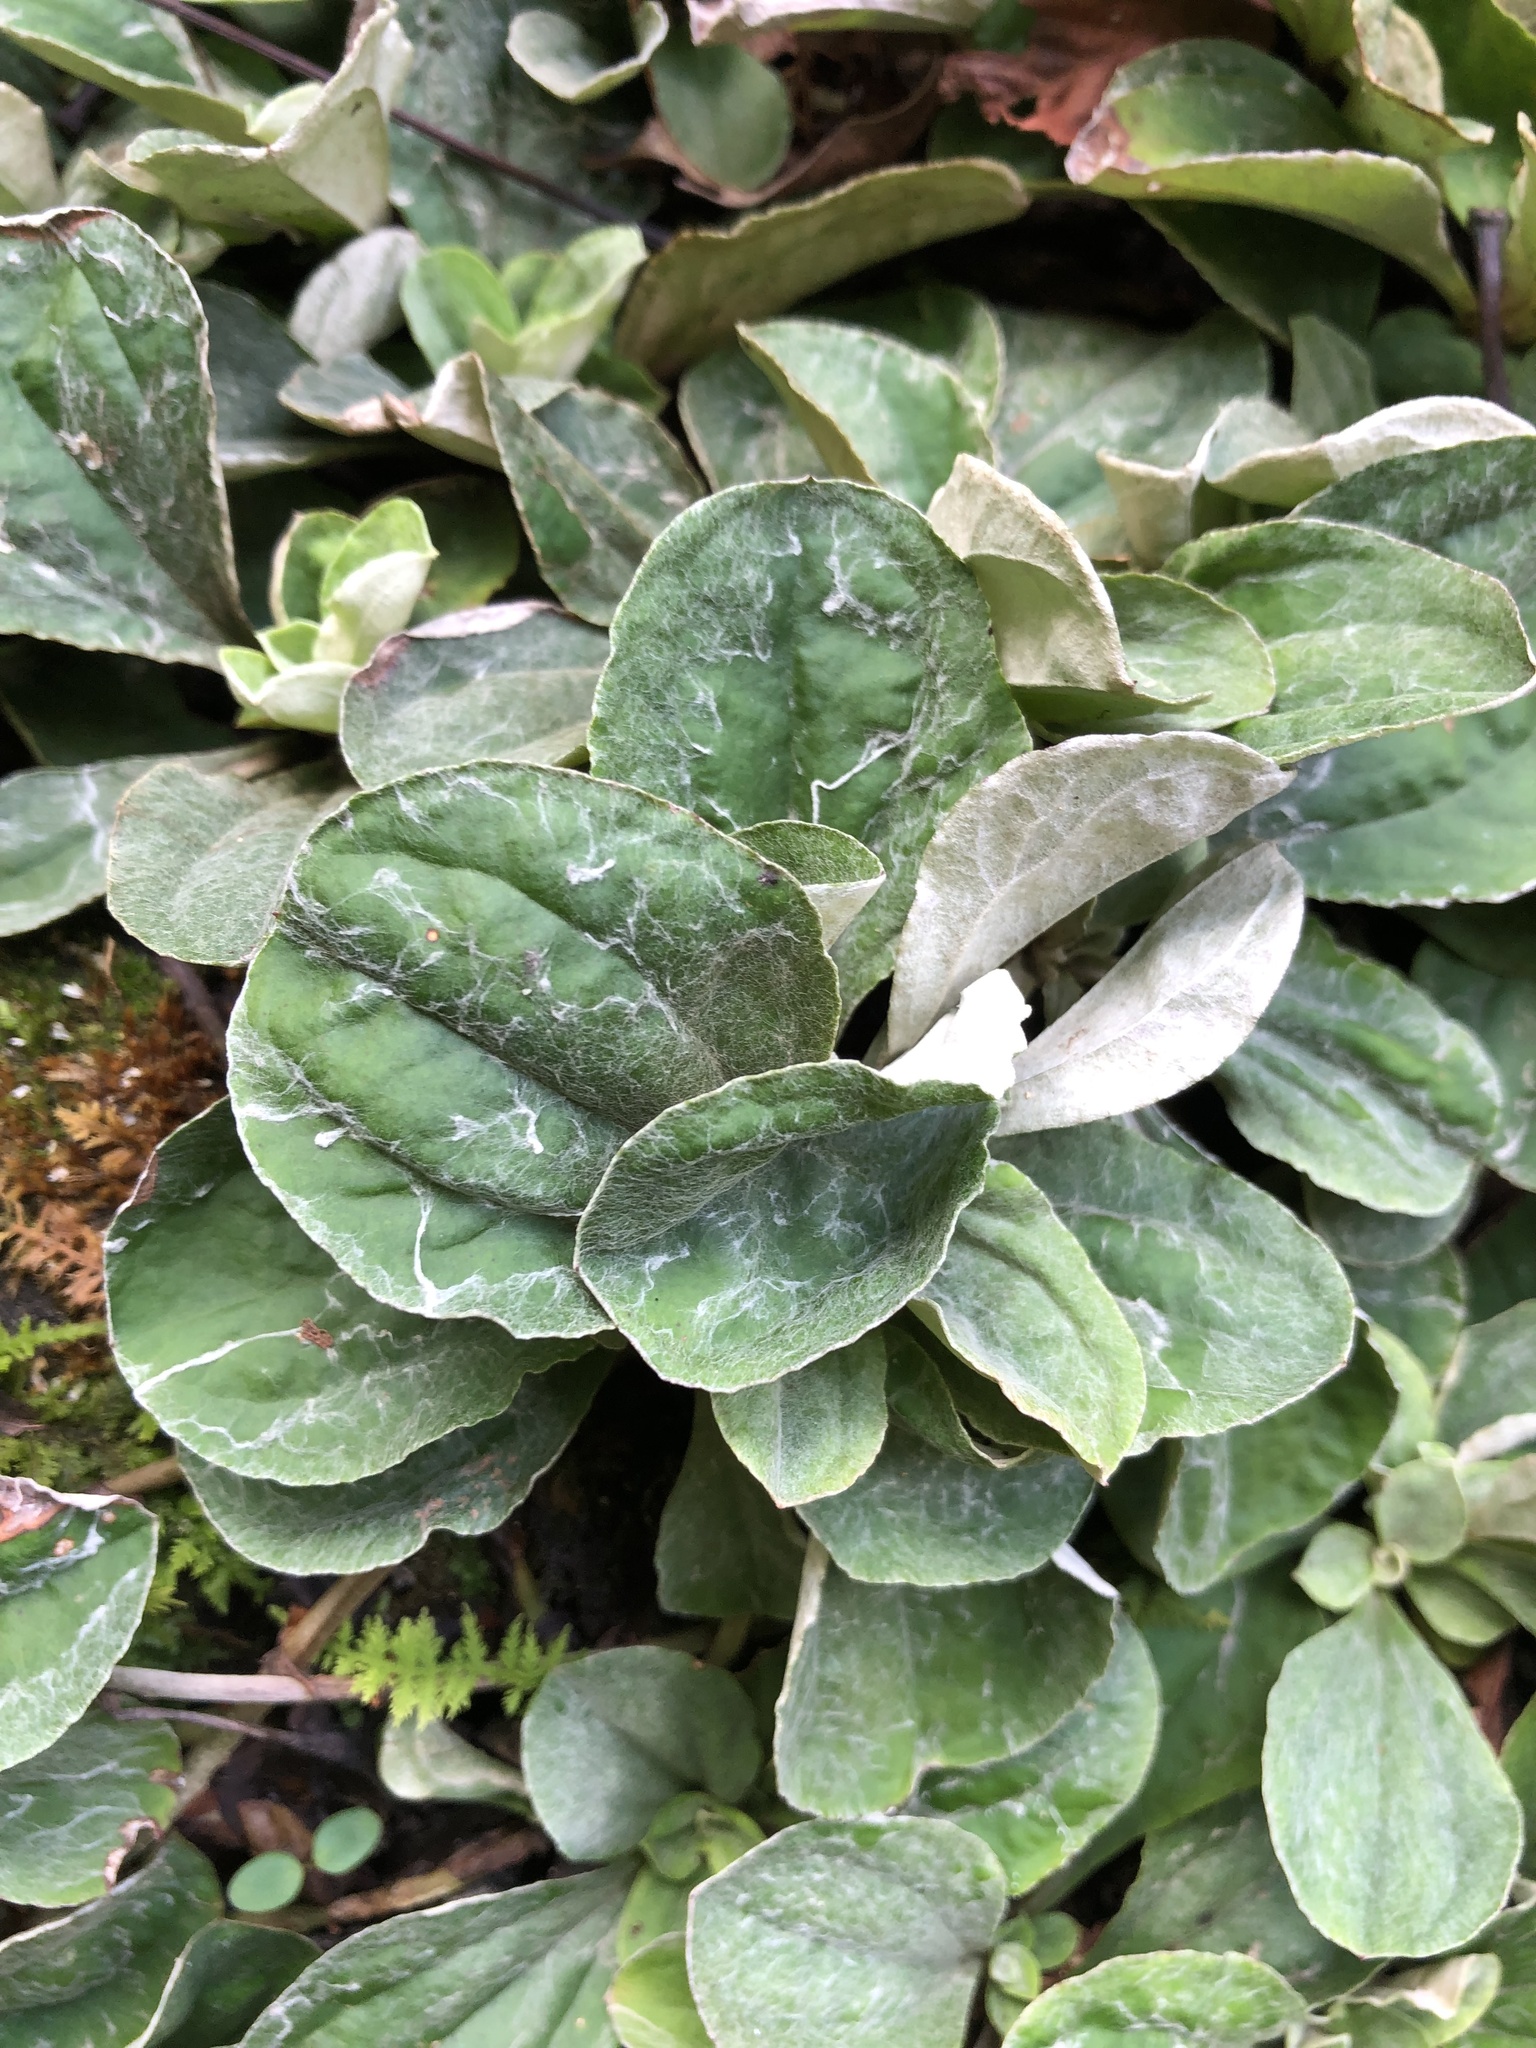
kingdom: Plantae
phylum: Tracheophyta
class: Magnoliopsida
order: Asterales
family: Asteraceae
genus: Antennaria
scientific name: Antennaria plantaginifolia
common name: Plantain-leaved pussytoes
